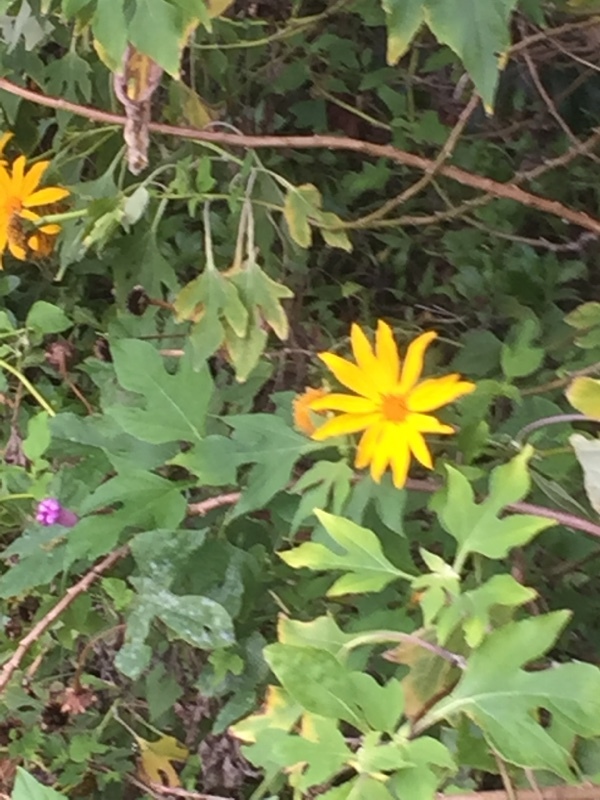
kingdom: Plantae
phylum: Tracheophyta
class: Magnoliopsida
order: Asterales
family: Asteraceae
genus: Tithonia
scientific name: Tithonia diversifolia
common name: Tree marigold
